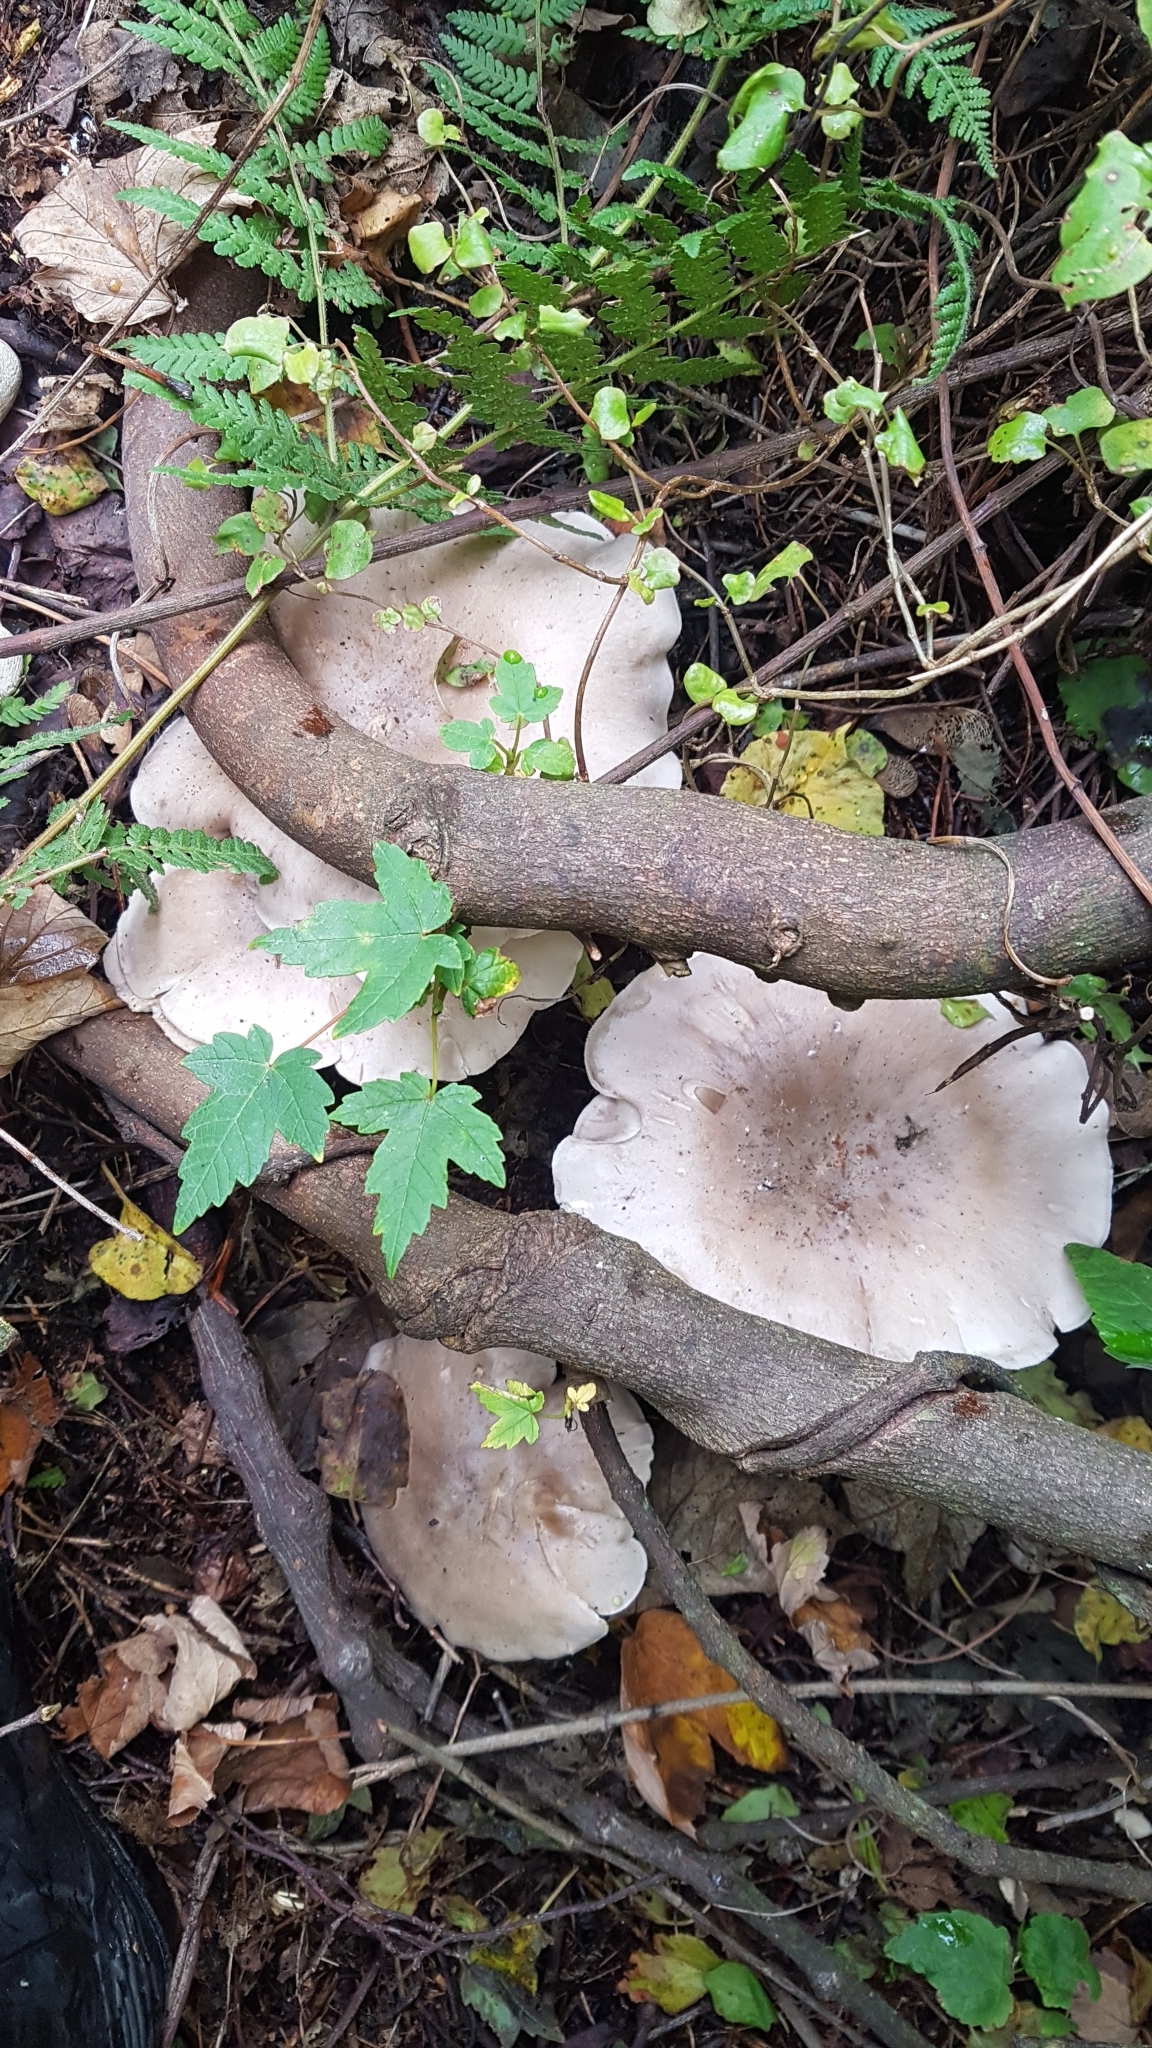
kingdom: Fungi
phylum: Basidiomycota
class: Agaricomycetes
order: Agaricales
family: Tricholomataceae
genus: Clitocybe
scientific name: Clitocybe nebularis
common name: Clouded agaric
